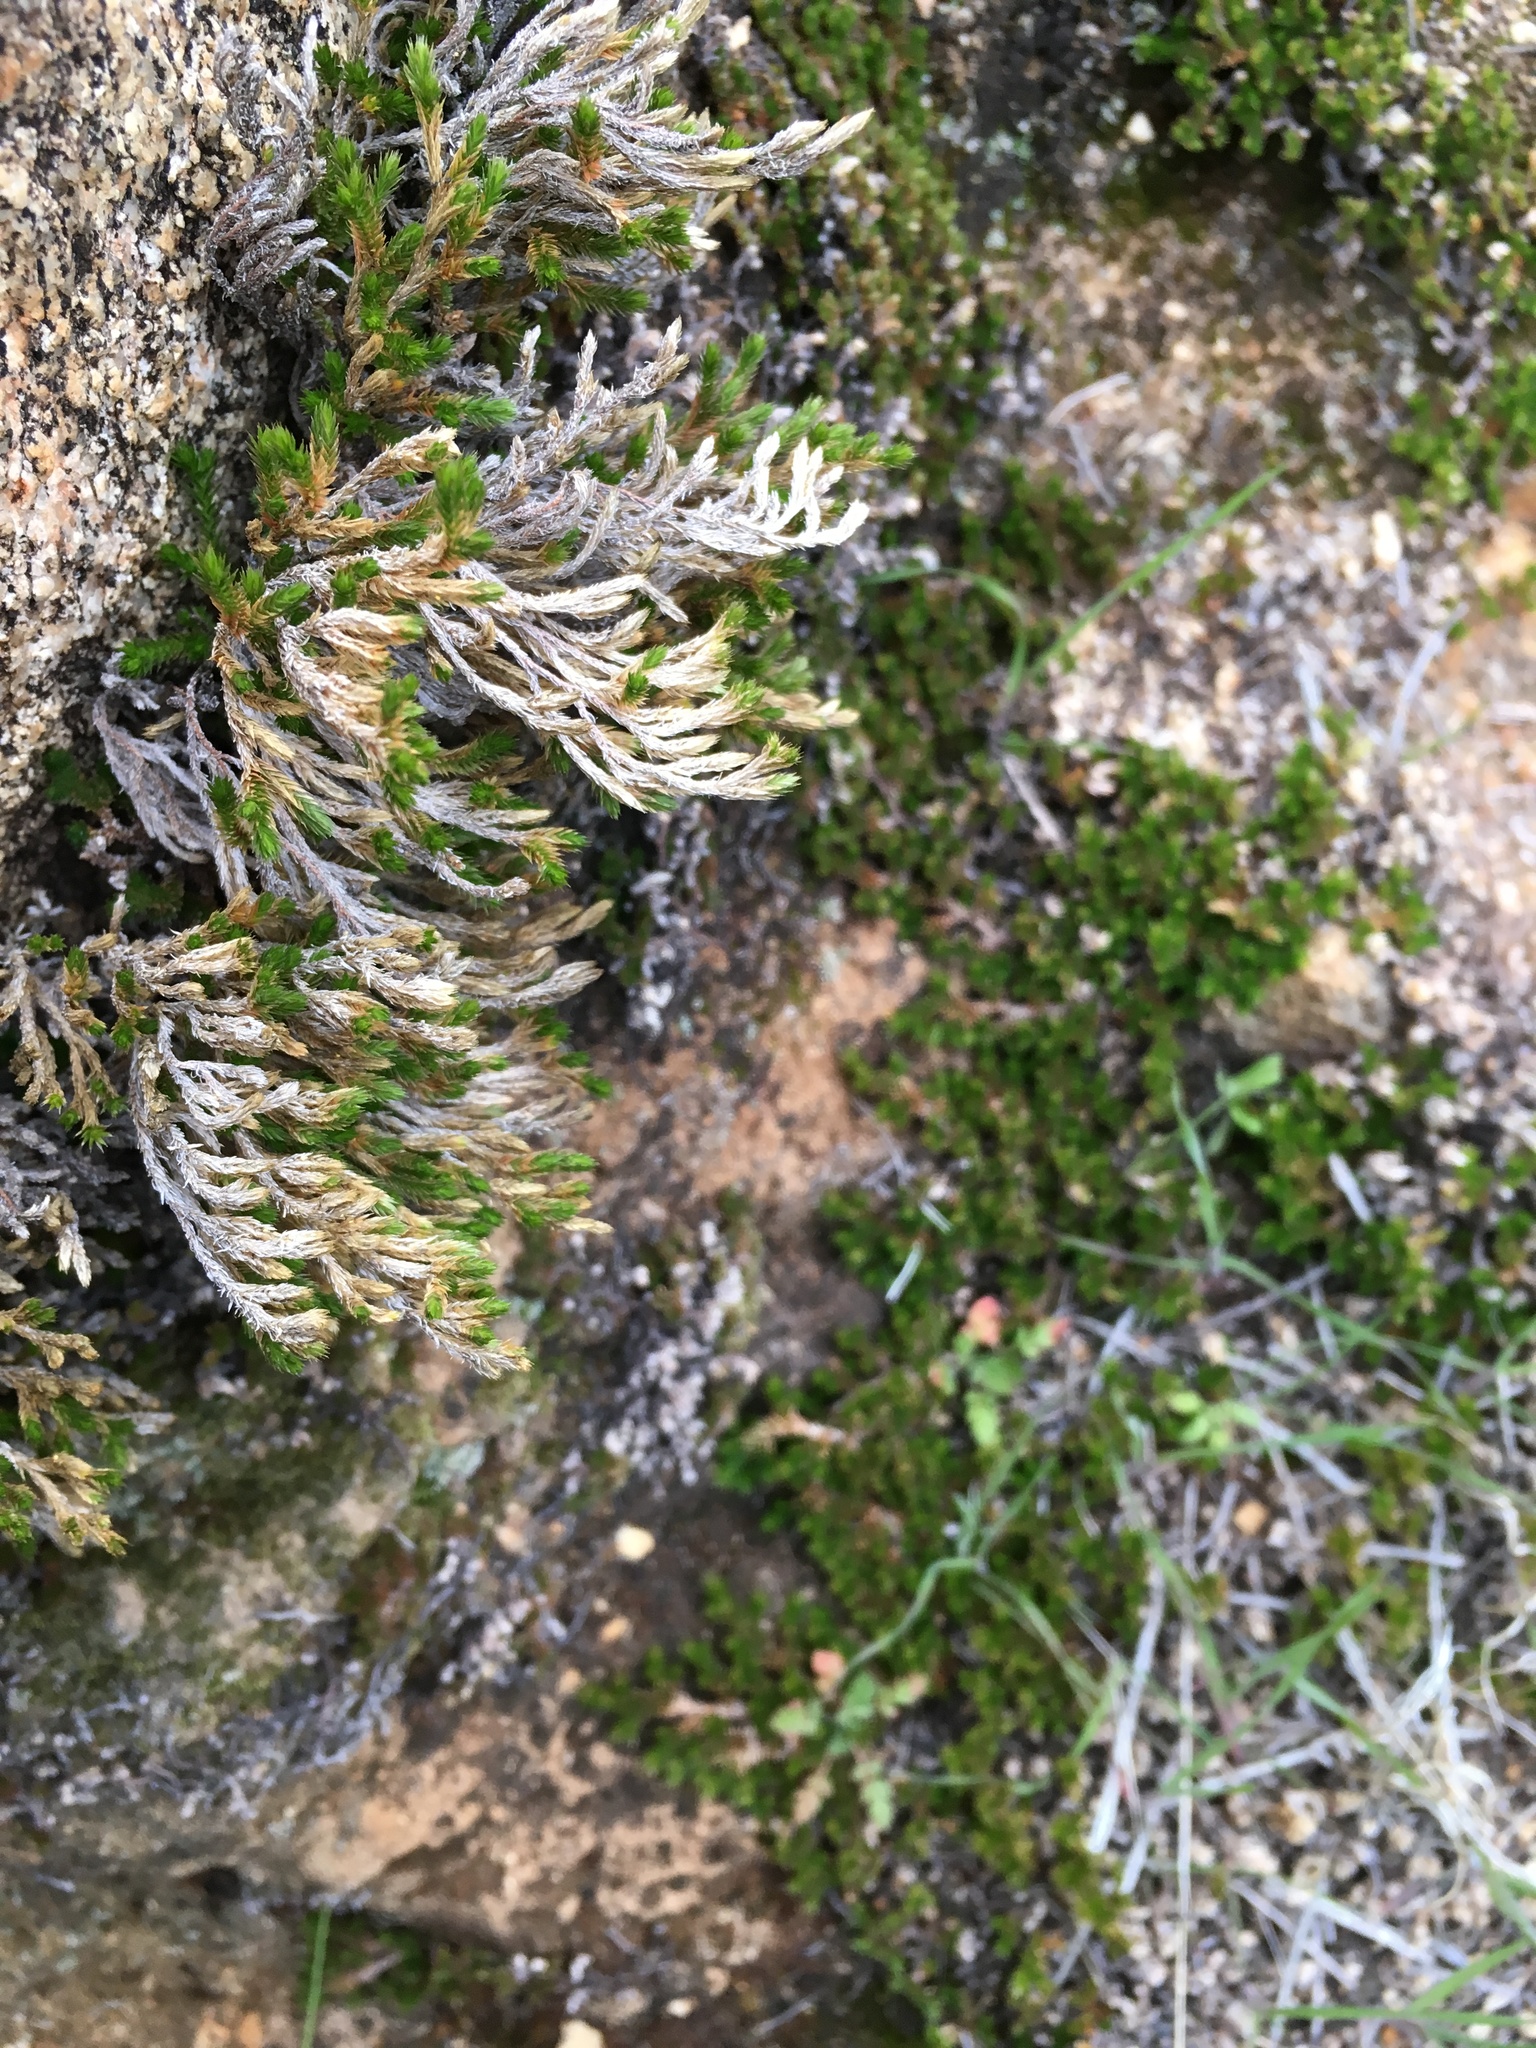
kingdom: Plantae
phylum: Tracheophyta
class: Lycopodiopsida
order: Selaginellales
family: Selaginellaceae
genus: Selaginella
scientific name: Selaginella bigelovii
